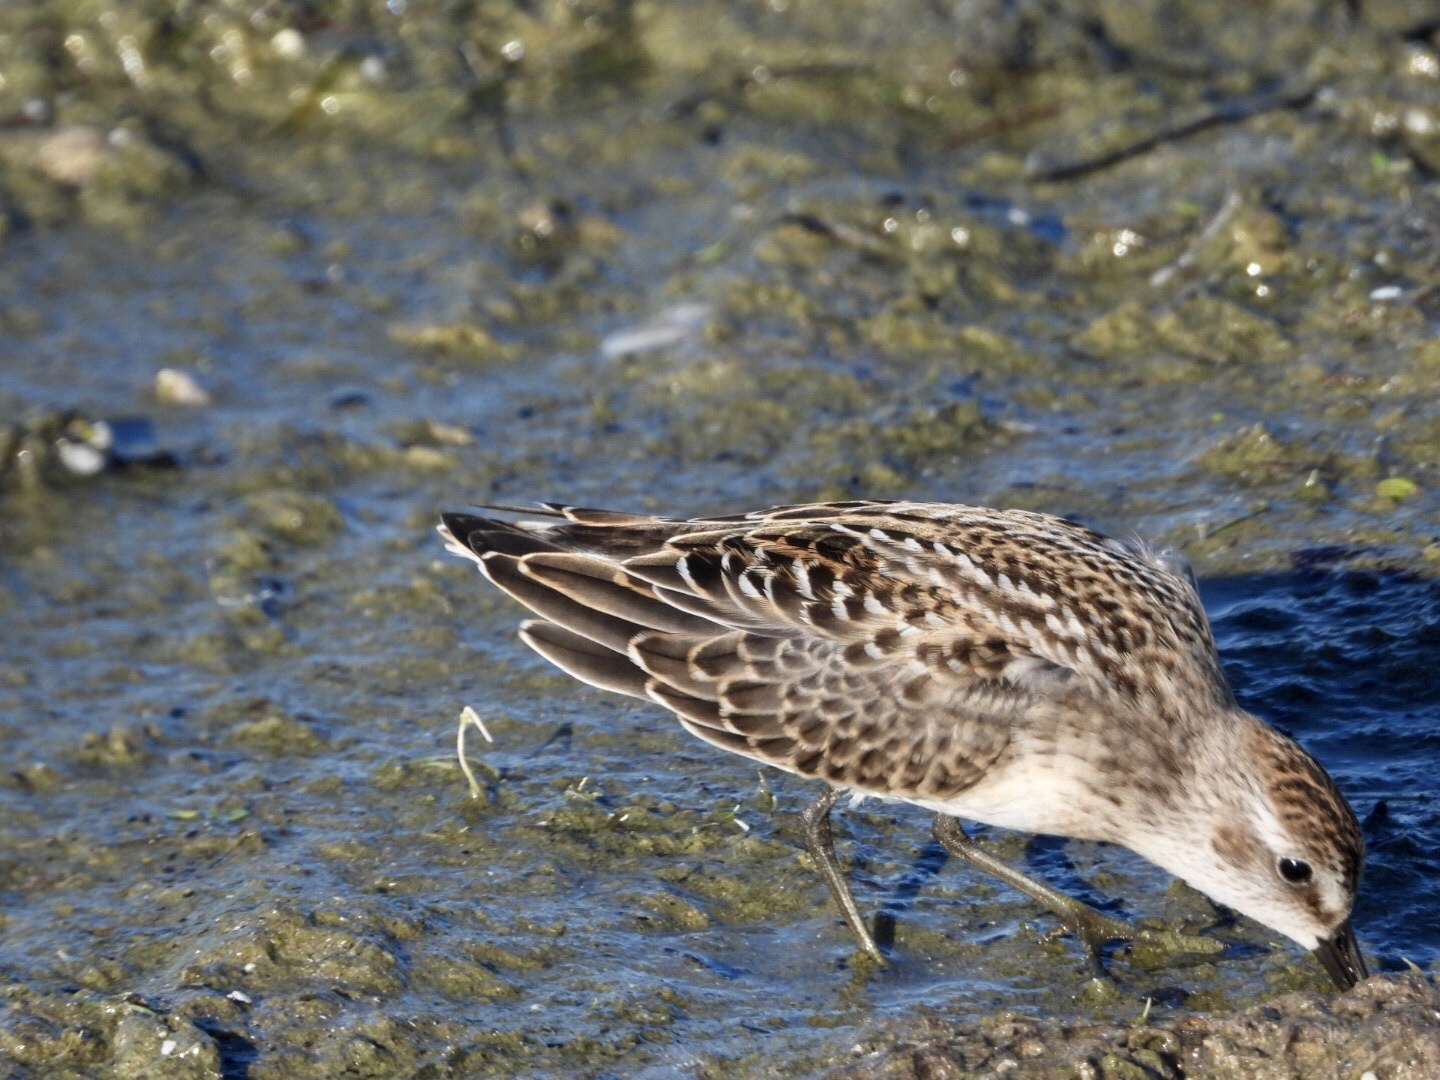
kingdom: Animalia
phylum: Chordata
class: Aves
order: Charadriiformes
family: Scolopacidae
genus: Calidris
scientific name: Calidris minutilla
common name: Least sandpiper
